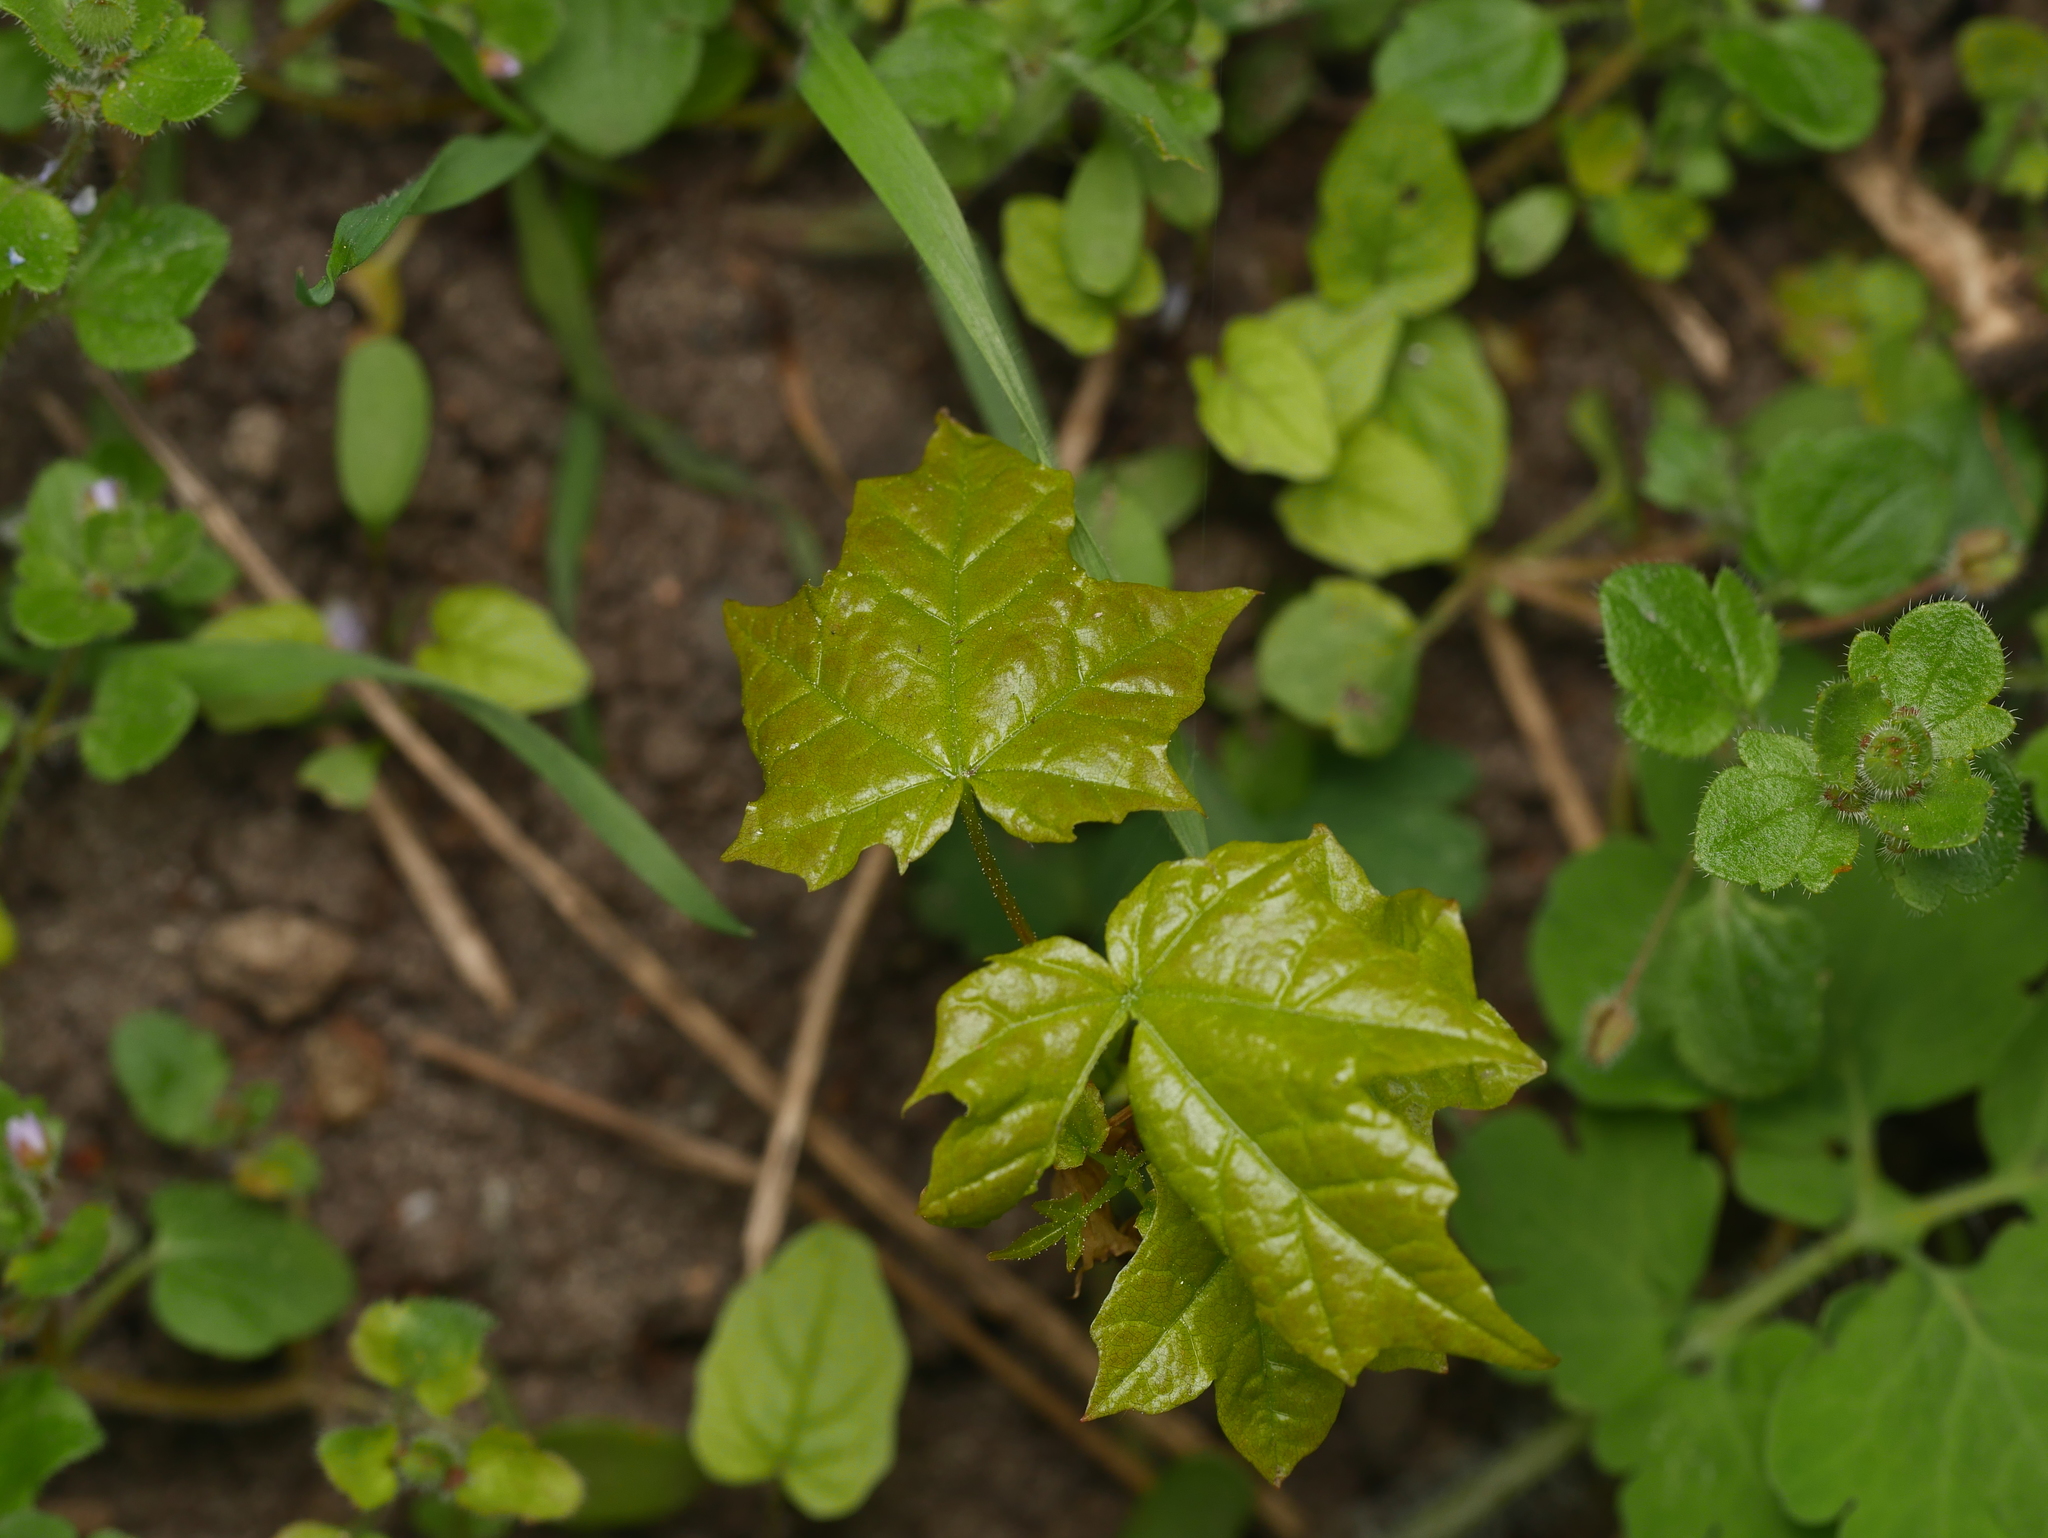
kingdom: Plantae
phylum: Tracheophyta
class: Magnoliopsida
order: Sapindales
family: Sapindaceae
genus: Acer
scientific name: Acer platanoides
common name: Norway maple
